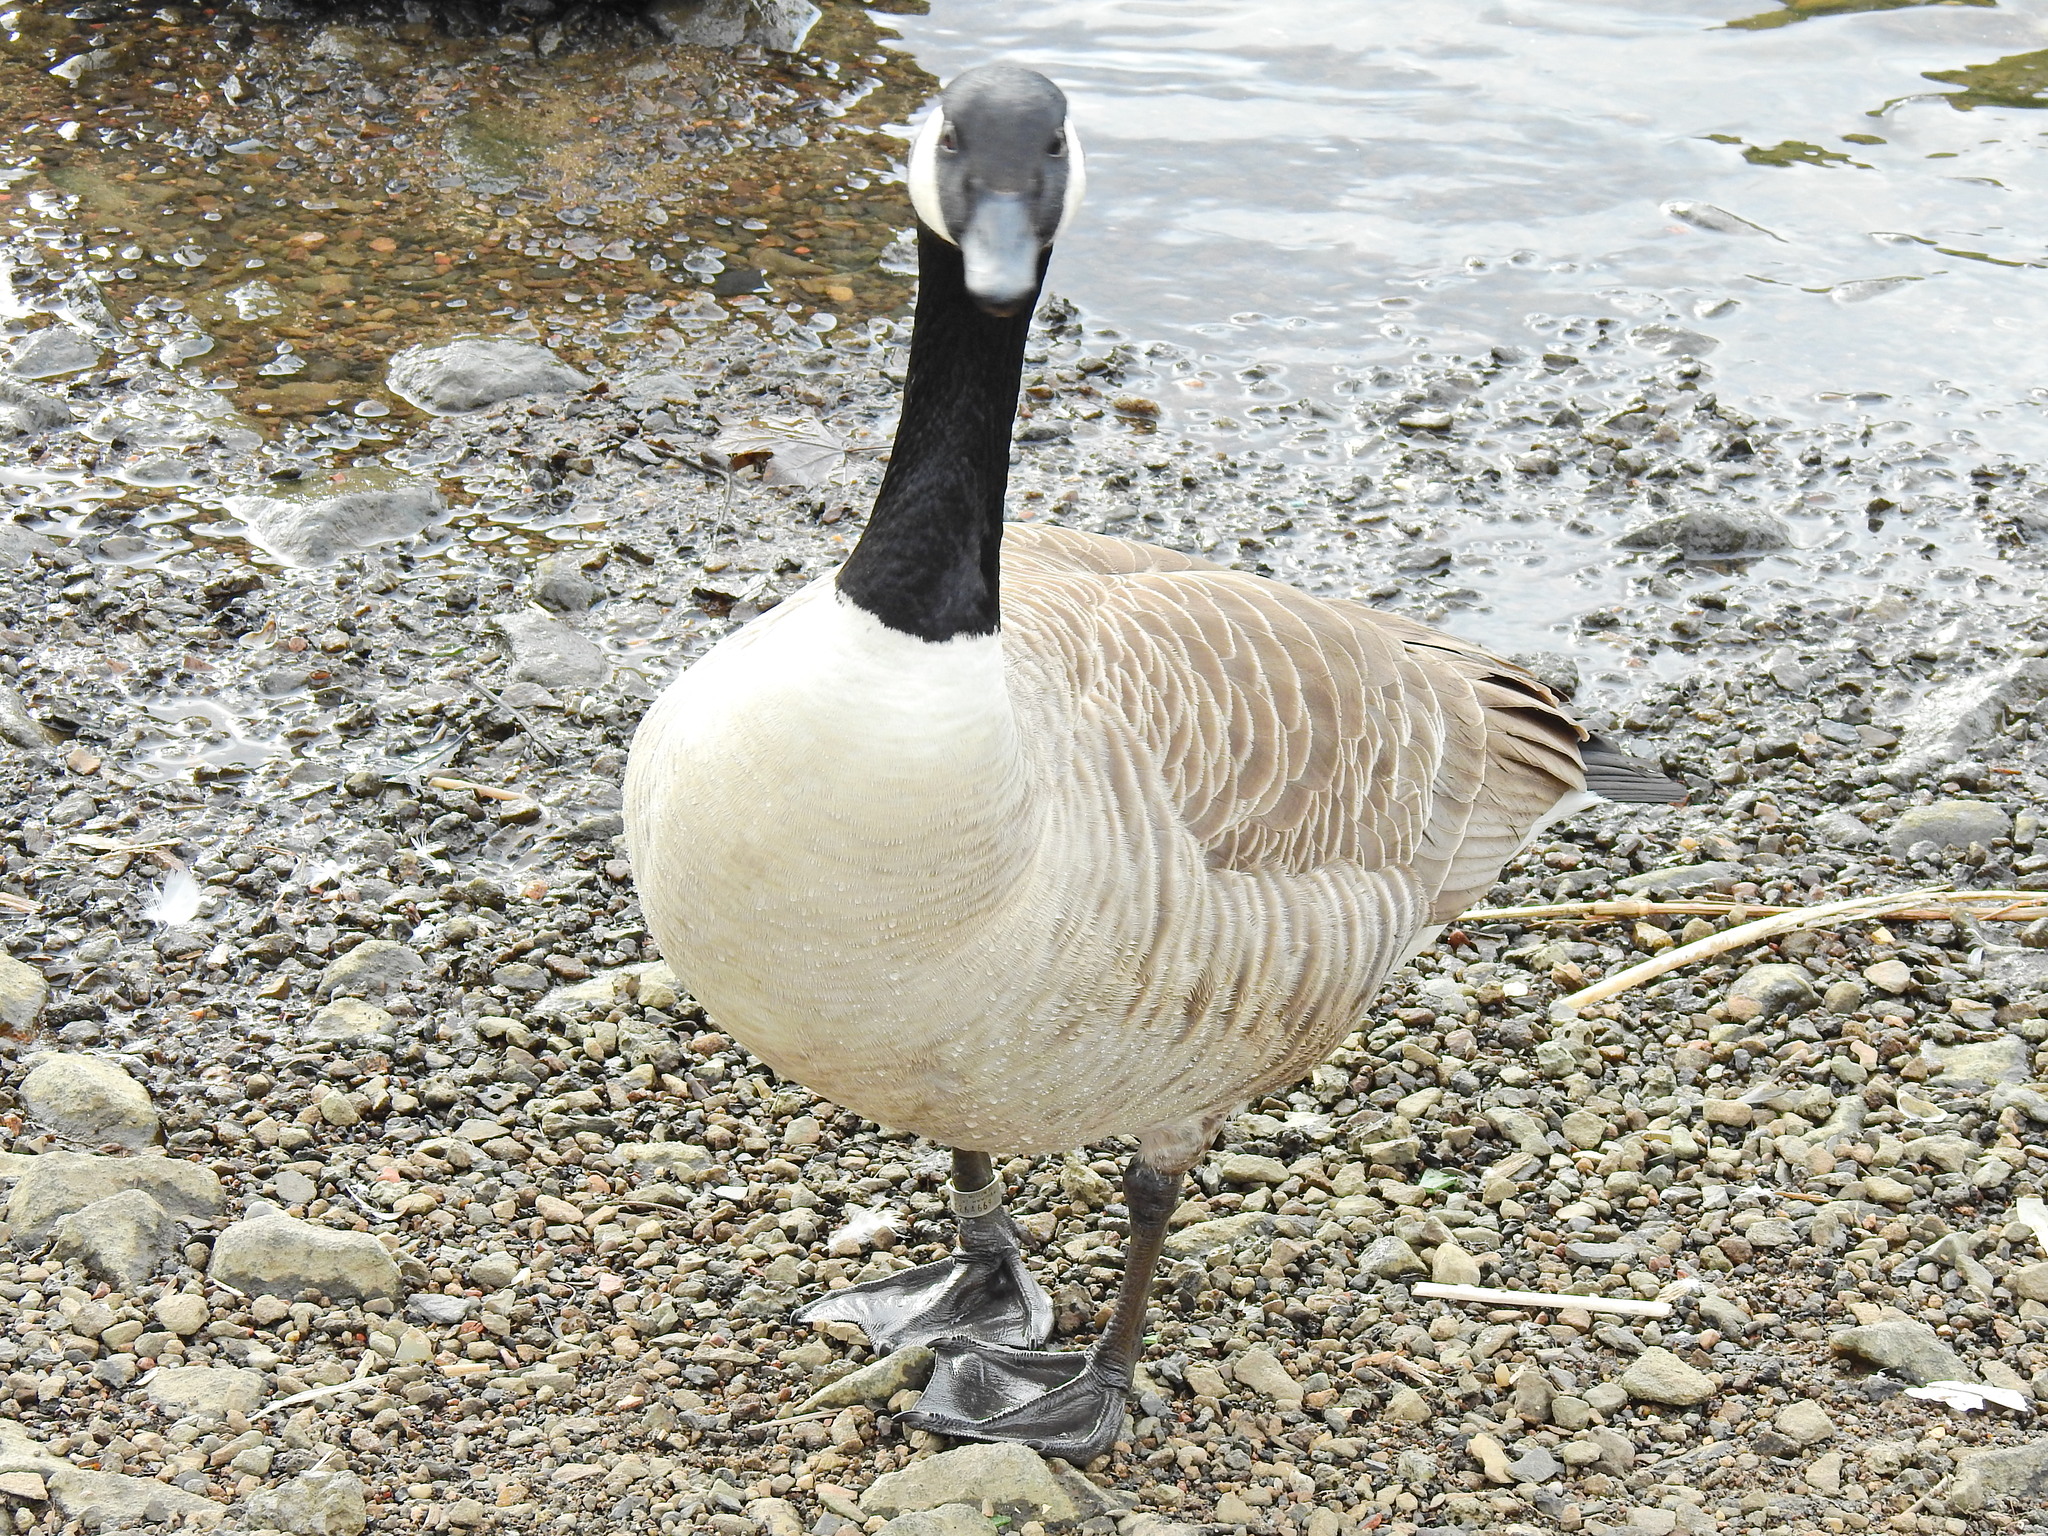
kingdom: Animalia
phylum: Chordata
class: Aves
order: Anseriformes
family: Anatidae
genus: Branta
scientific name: Branta canadensis
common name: Canada goose
